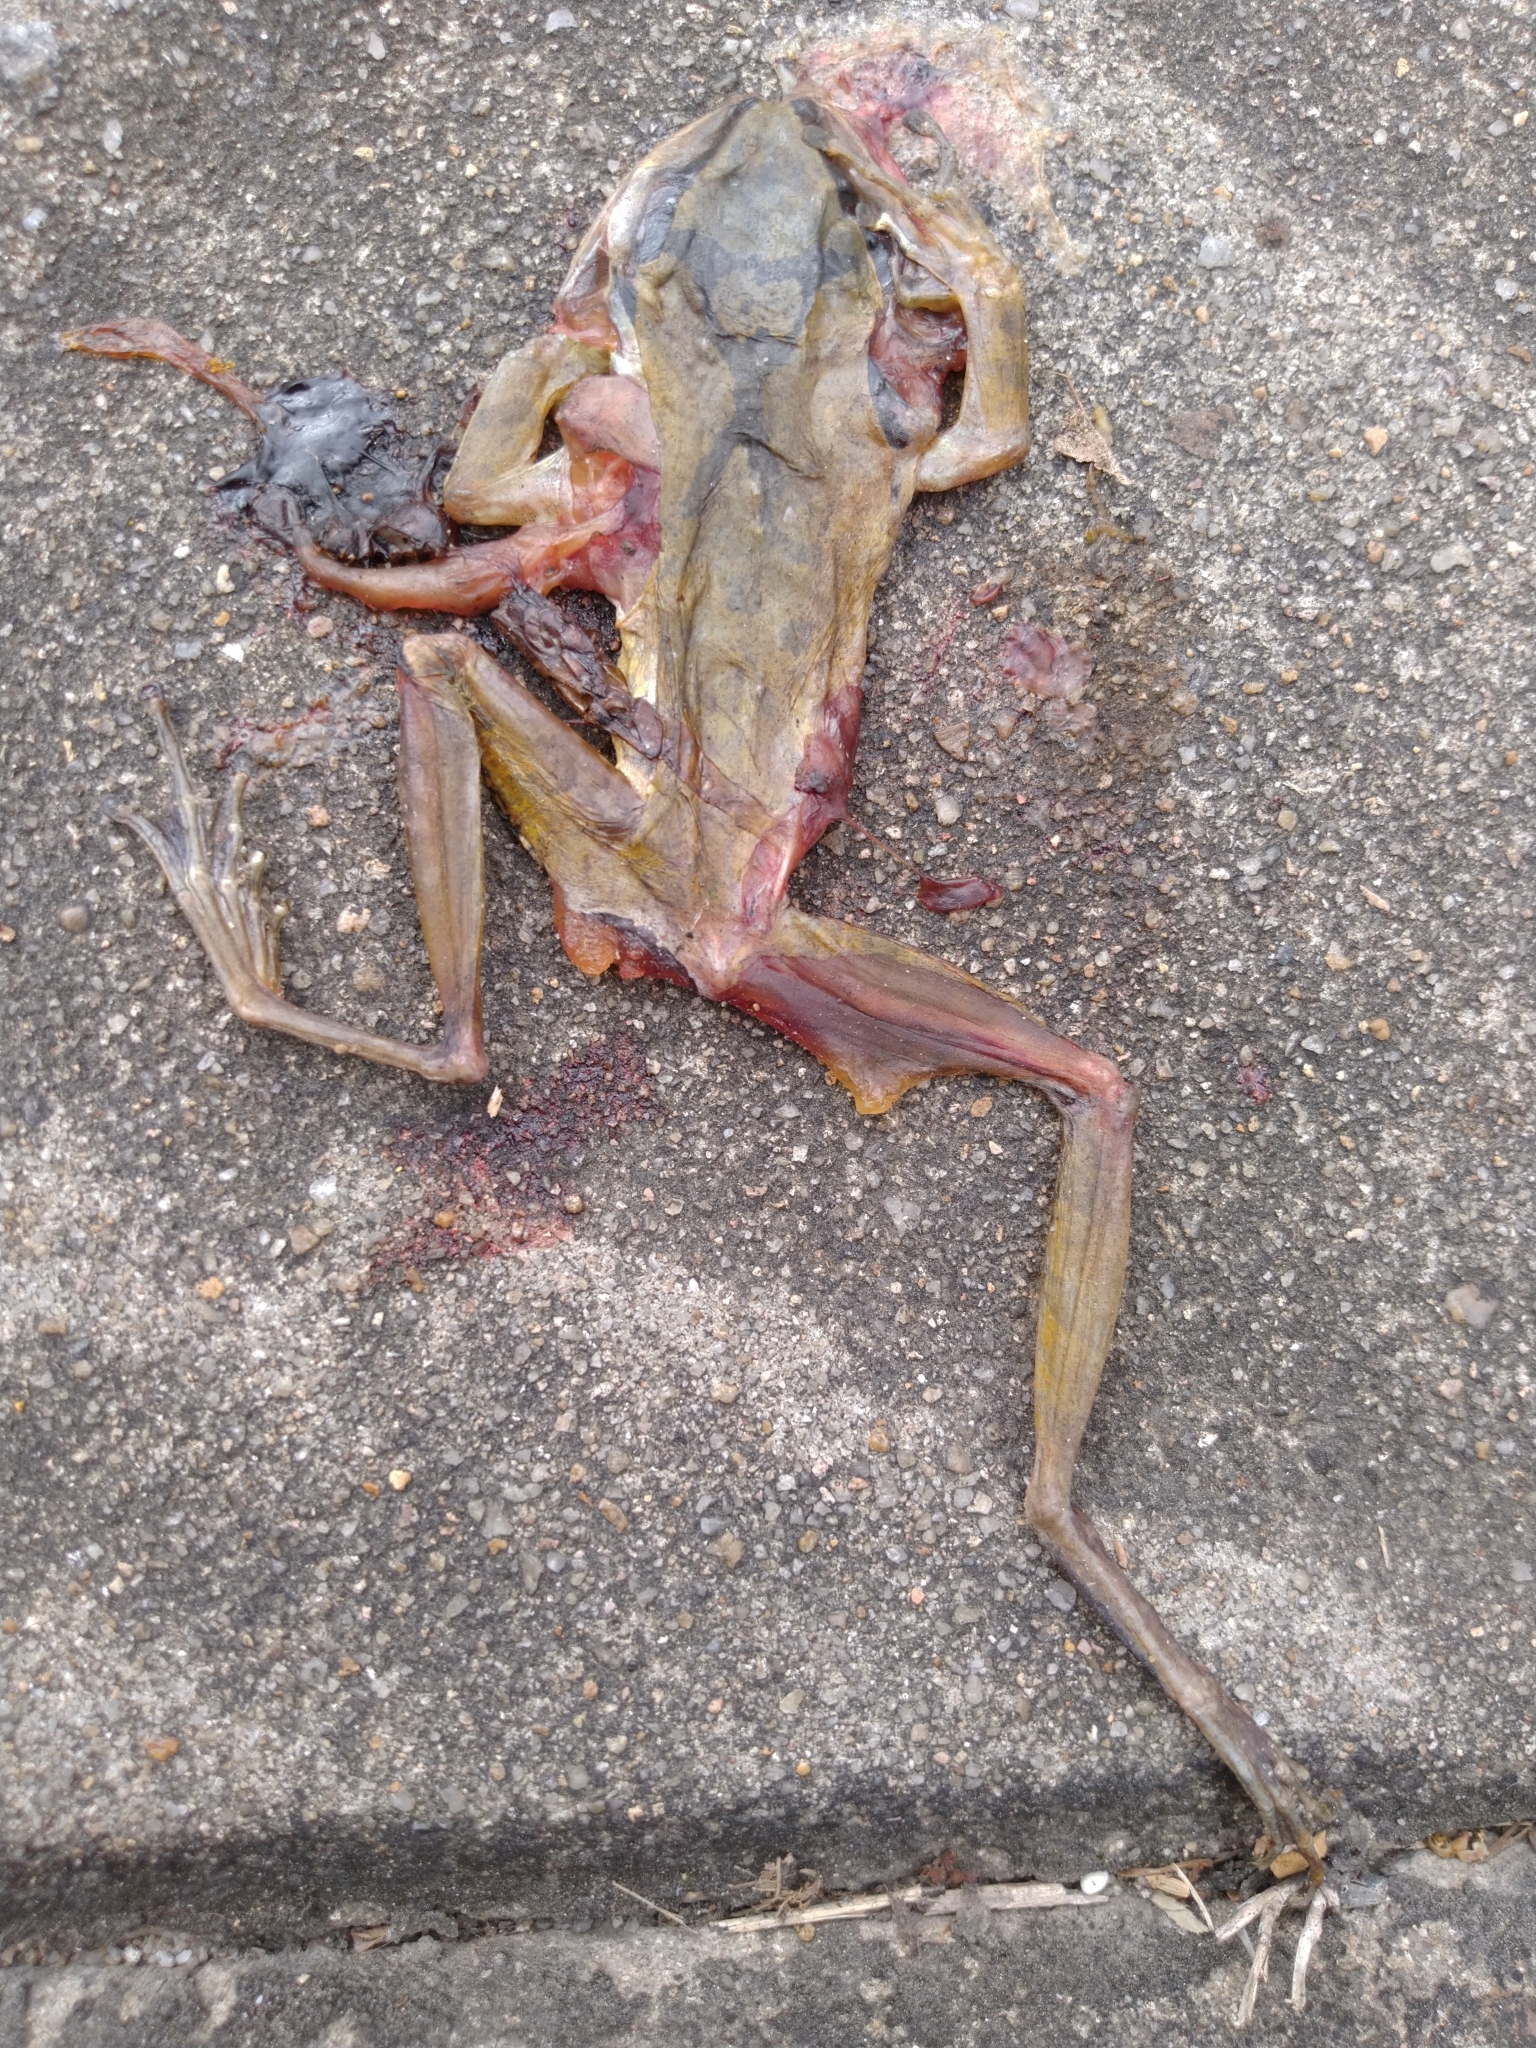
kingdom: Animalia
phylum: Chordata
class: Amphibia
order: Anura
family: Rhacophoridae
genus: Polypedates
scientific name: Polypedates megacephalus
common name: Hong kong whipping frog
